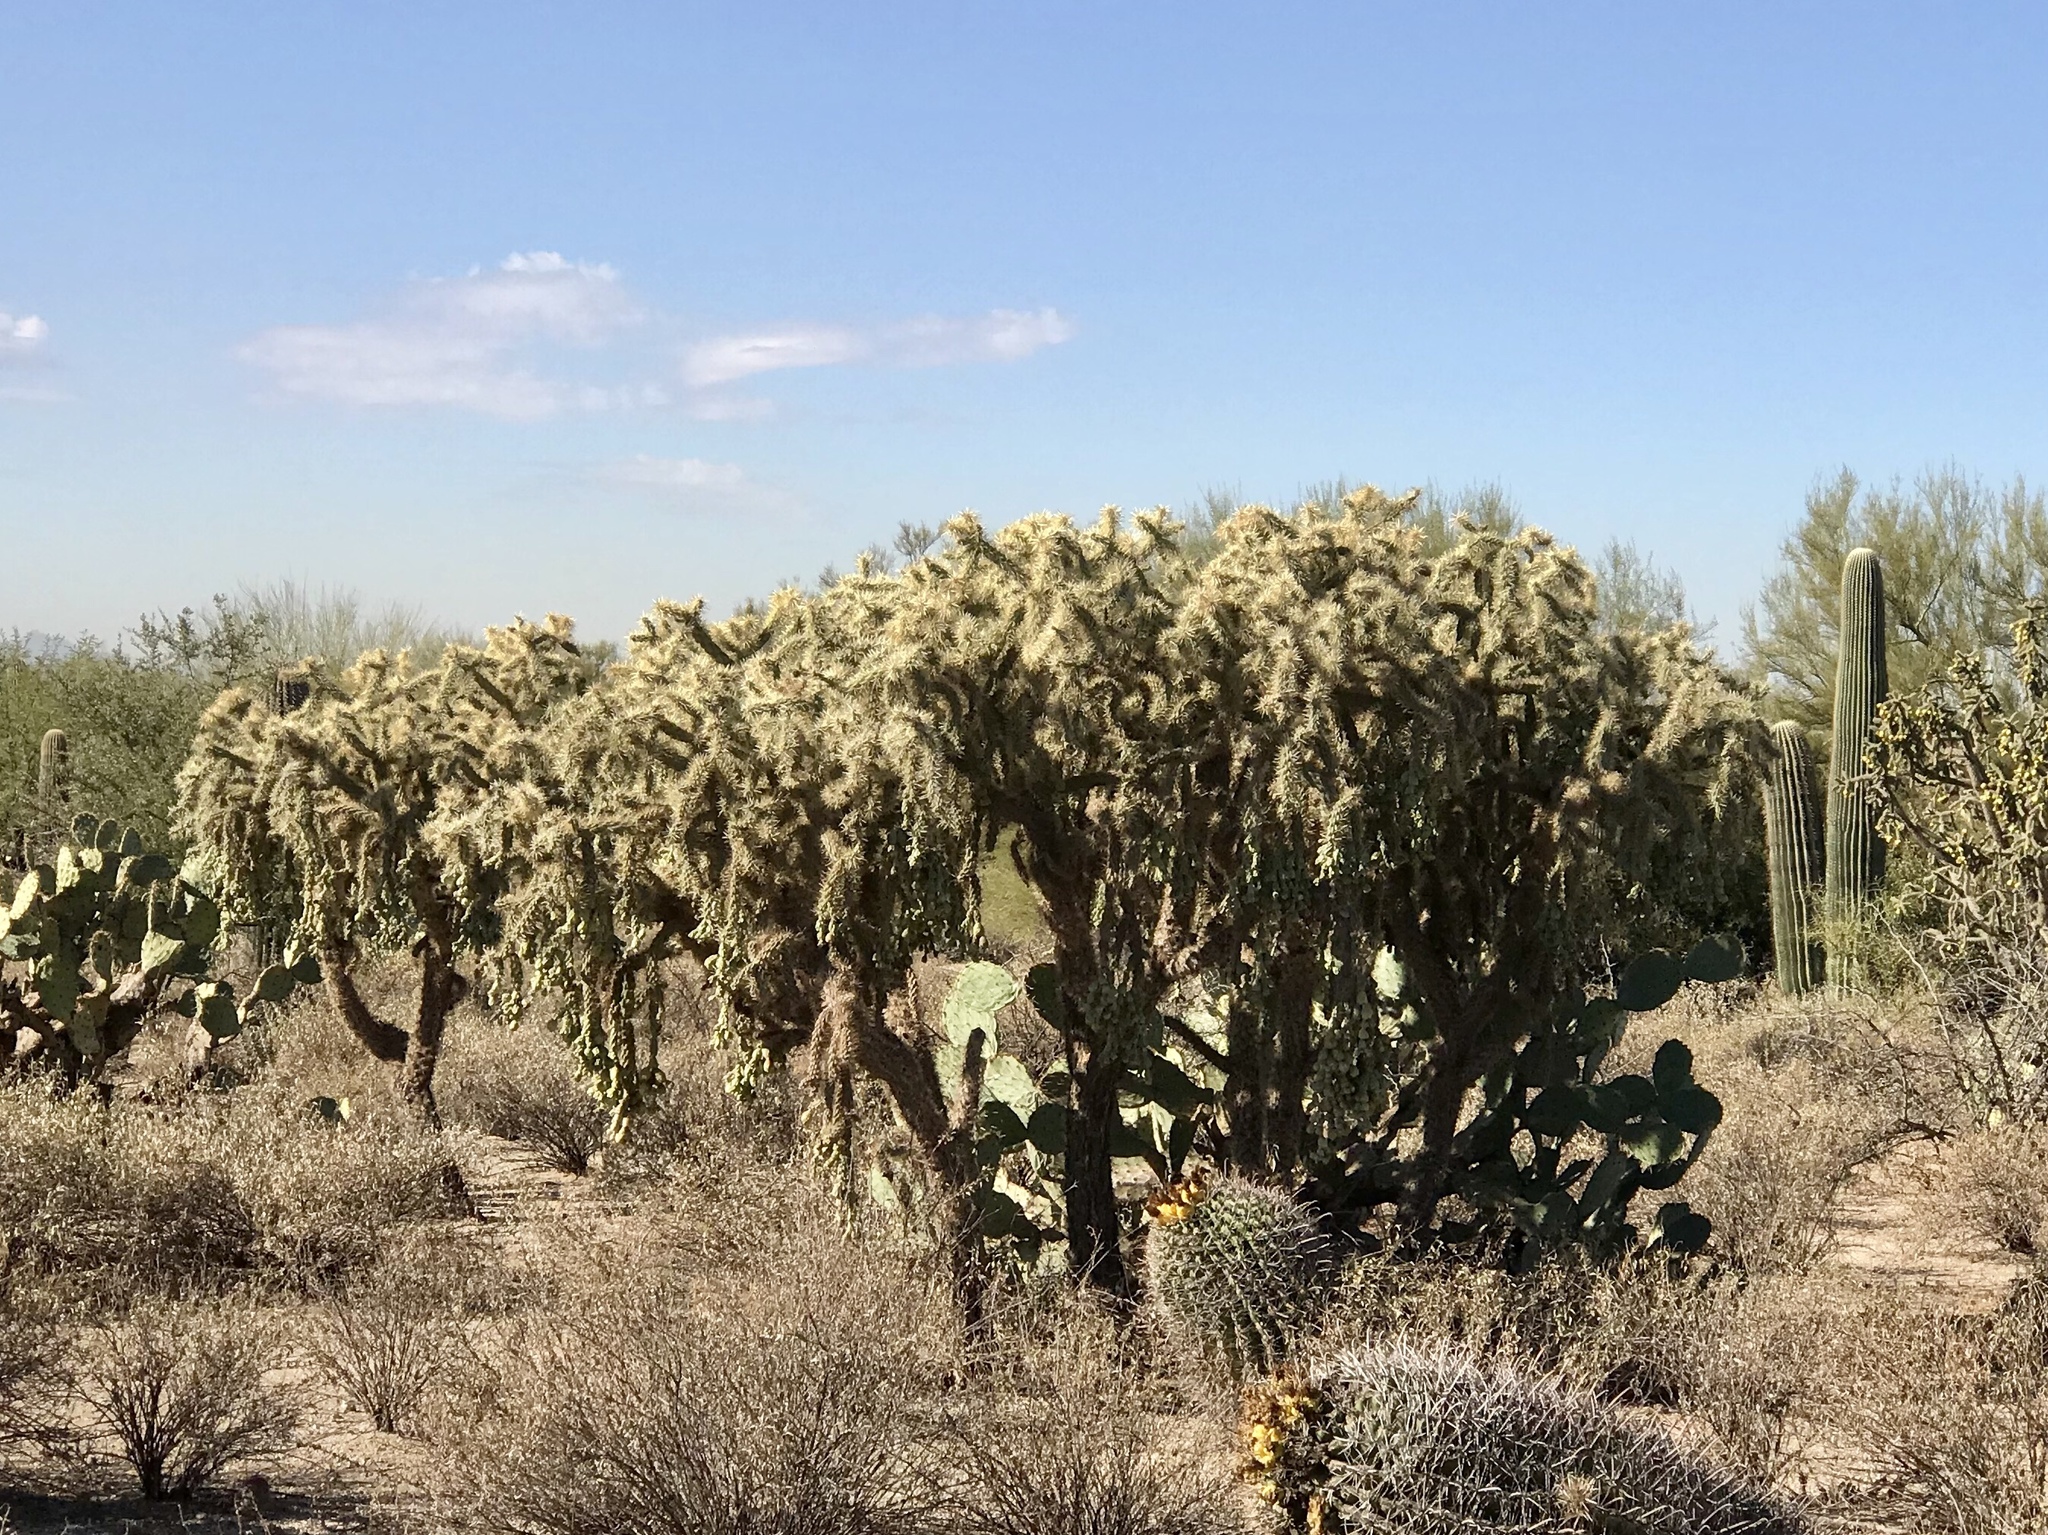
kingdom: Plantae
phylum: Tracheophyta
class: Magnoliopsida
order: Caryophyllales
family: Cactaceae
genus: Cylindropuntia
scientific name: Cylindropuntia fulgida
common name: Jumping cholla
